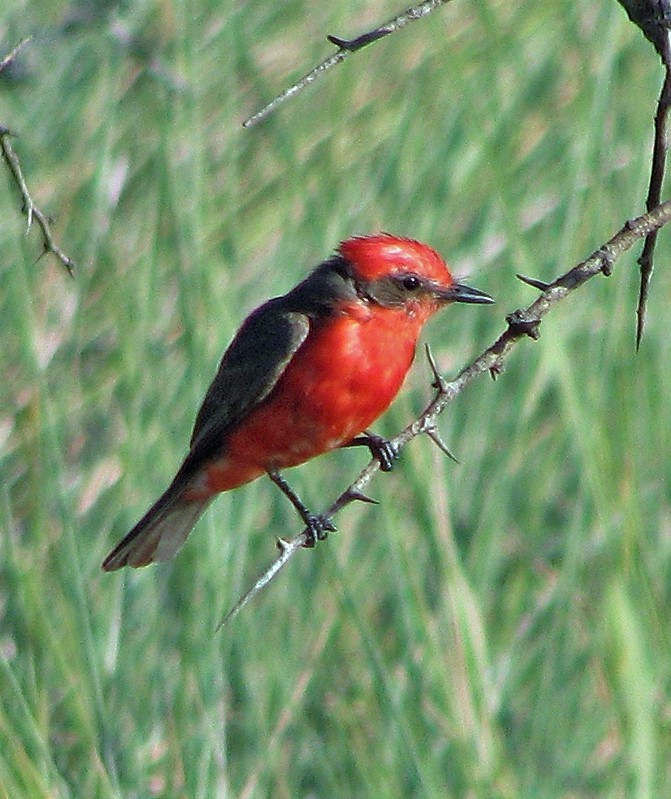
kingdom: Animalia
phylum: Chordata
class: Aves
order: Passeriformes
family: Tyrannidae
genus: Pyrocephalus
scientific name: Pyrocephalus rubinus
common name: Vermilion flycatcher
